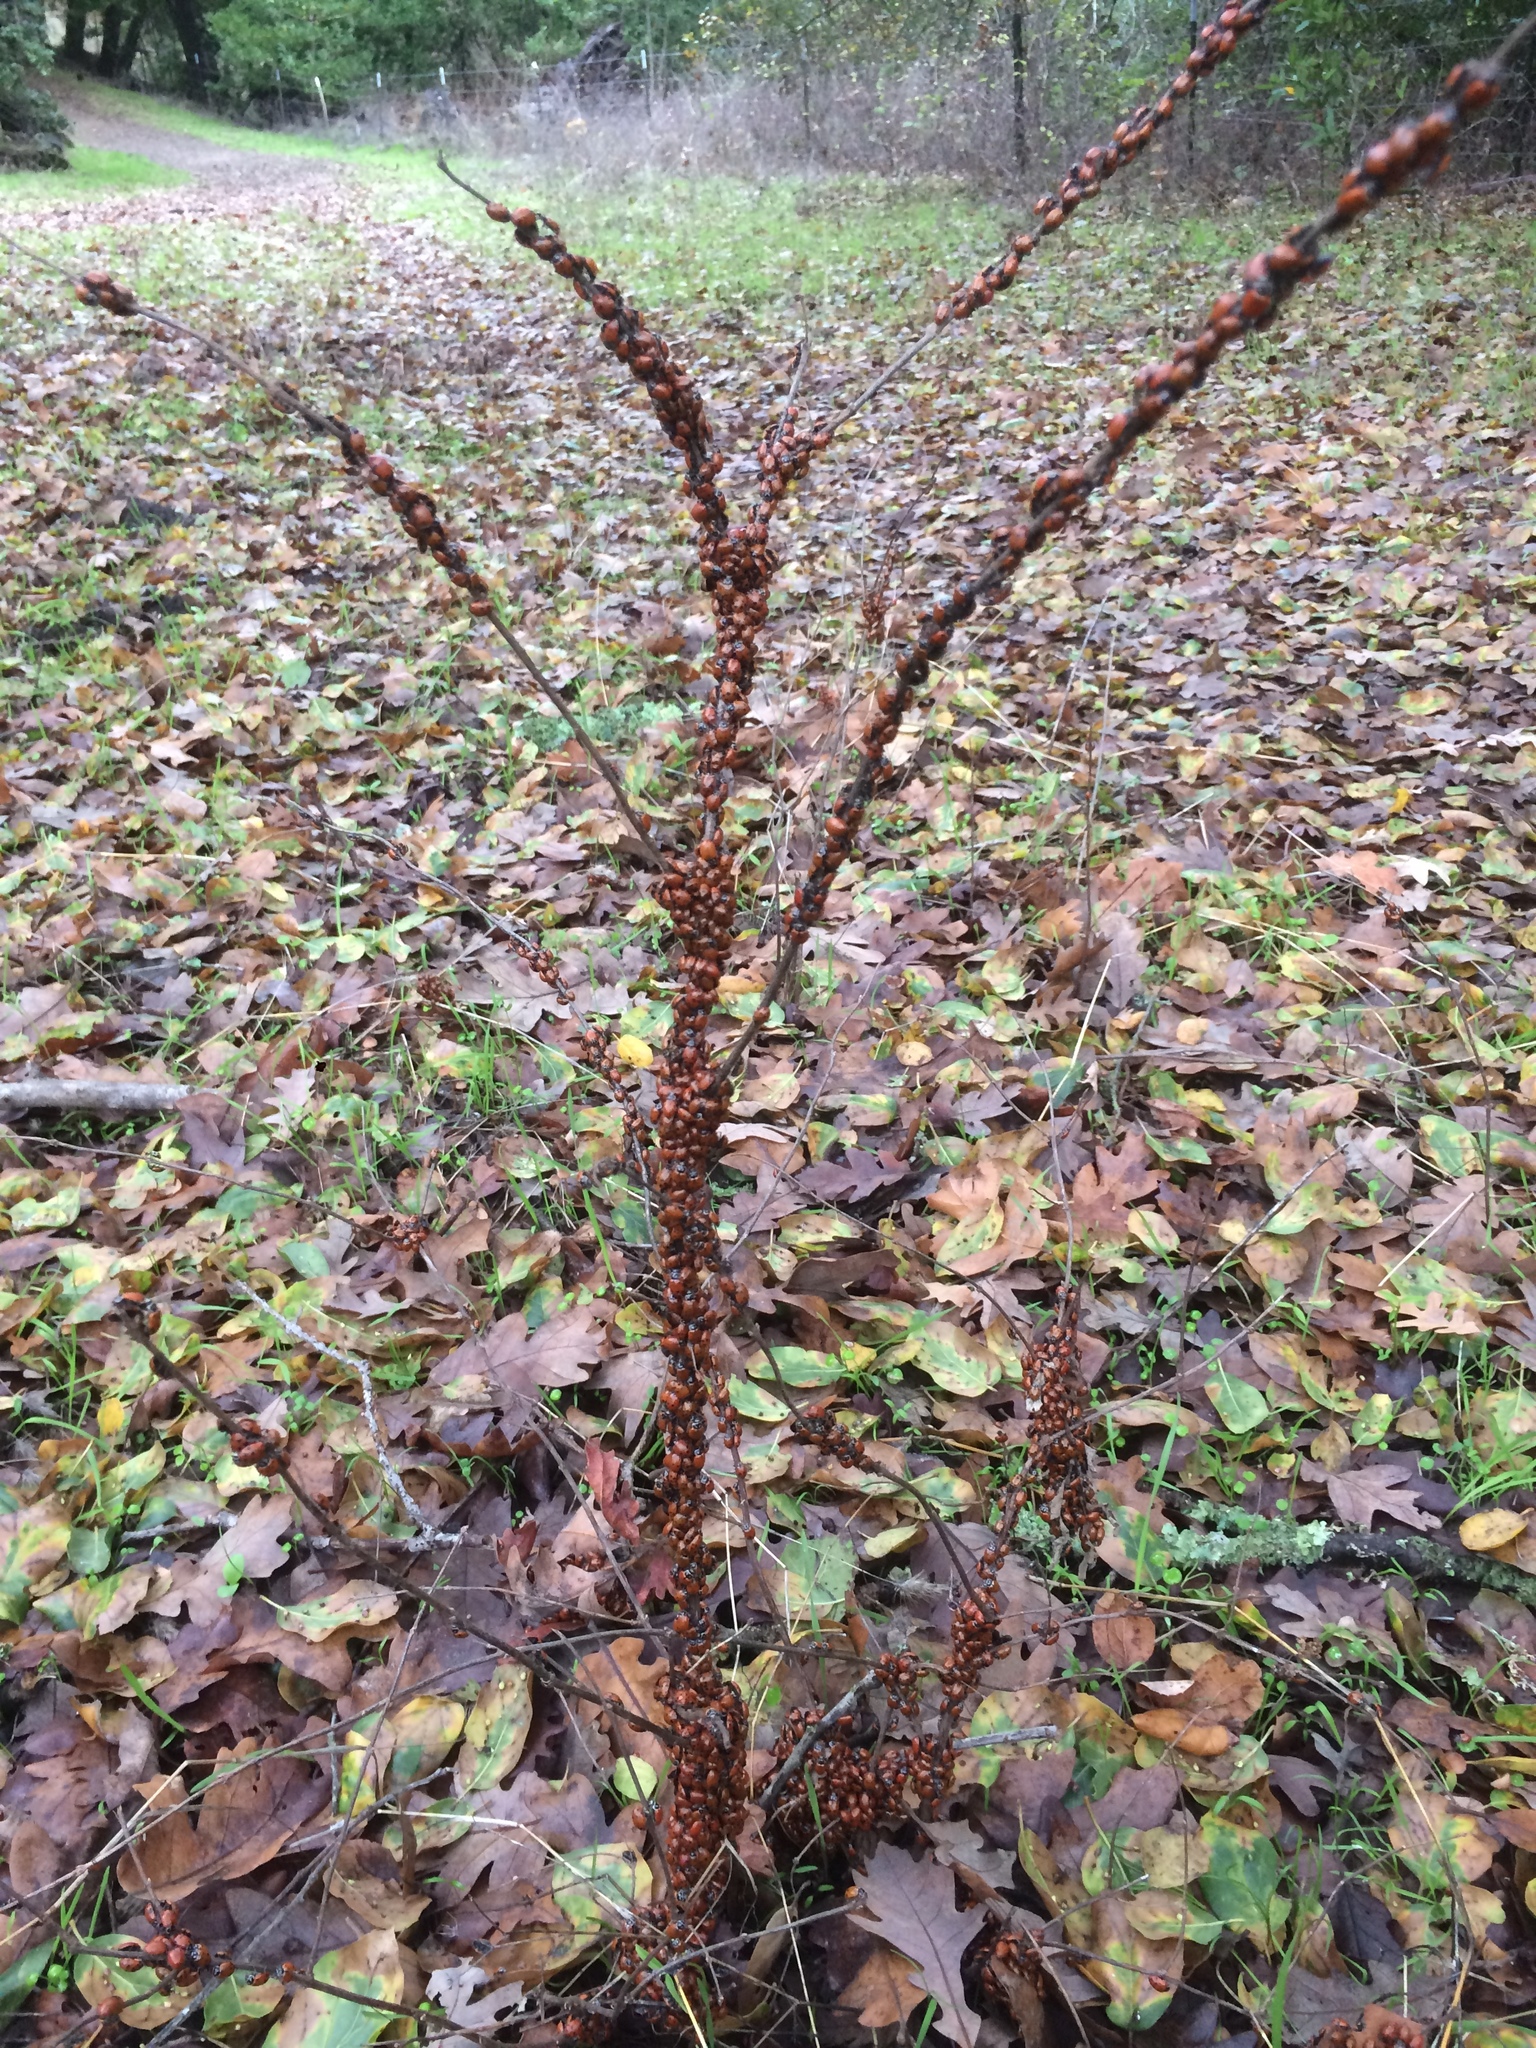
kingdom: Animalia
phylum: Arthropoda
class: Insecta
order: Coleoptera
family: Coccinellidae
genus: Hippodamia
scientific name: Hippodamia convergens
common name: Convergent lady beetle
